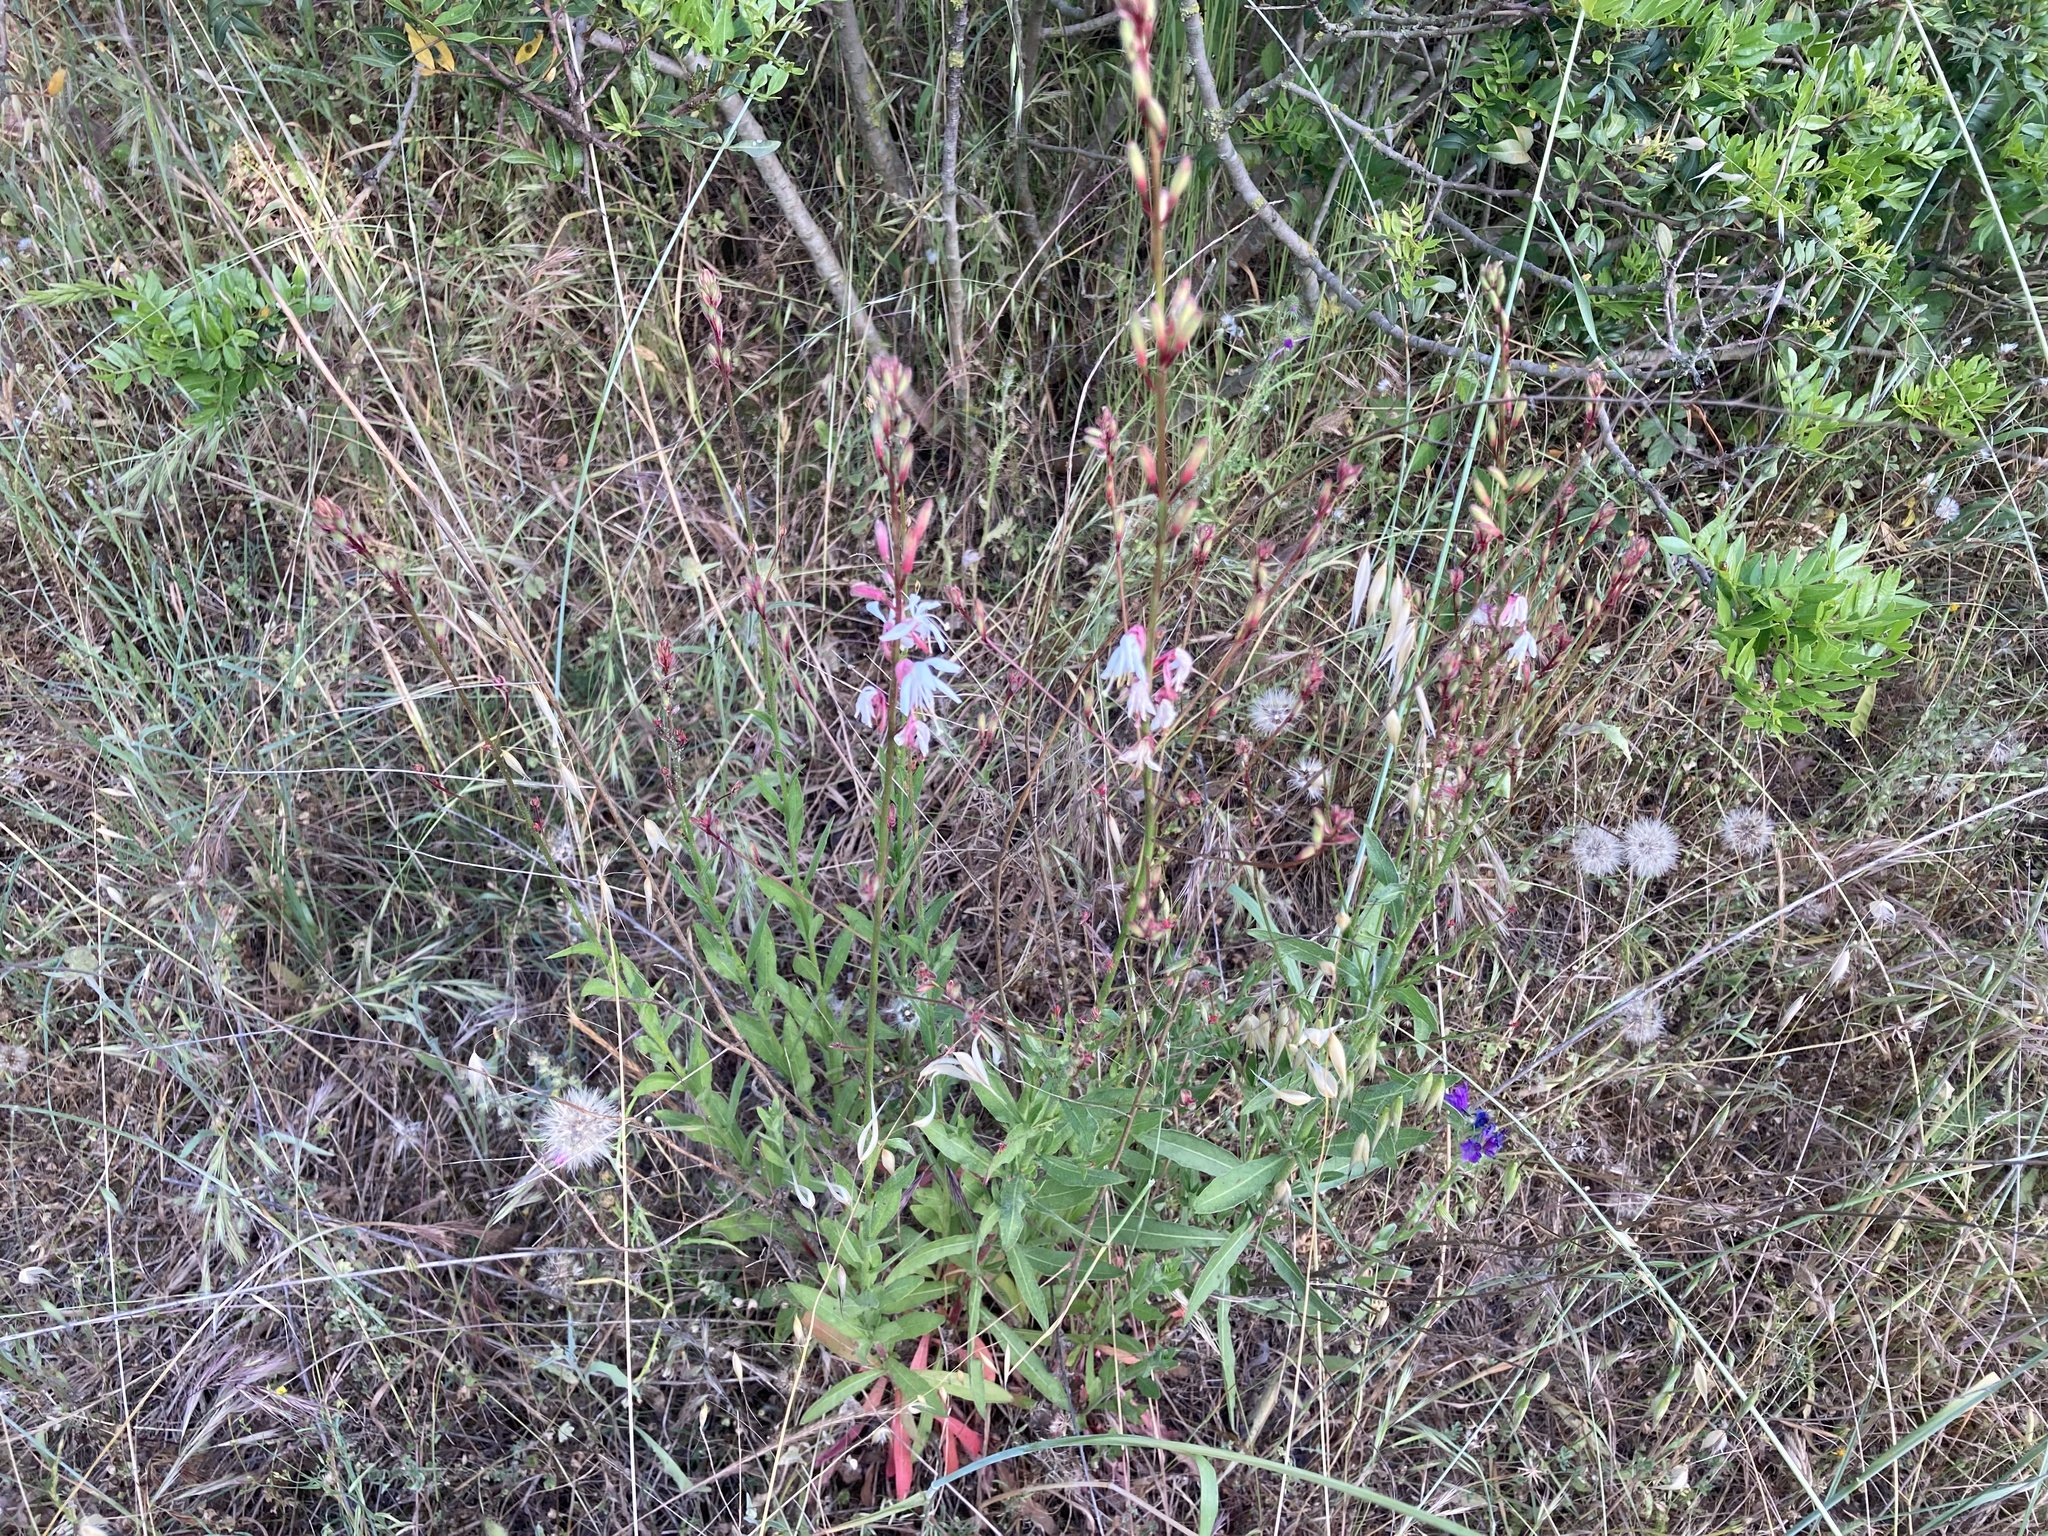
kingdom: Plantae
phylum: Tracheophyta
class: Magnoliopsida
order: Myrtales
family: Onagraceae
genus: Oenothera
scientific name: Oenothera lindheimeri
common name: Lindheimer's beeblossom
